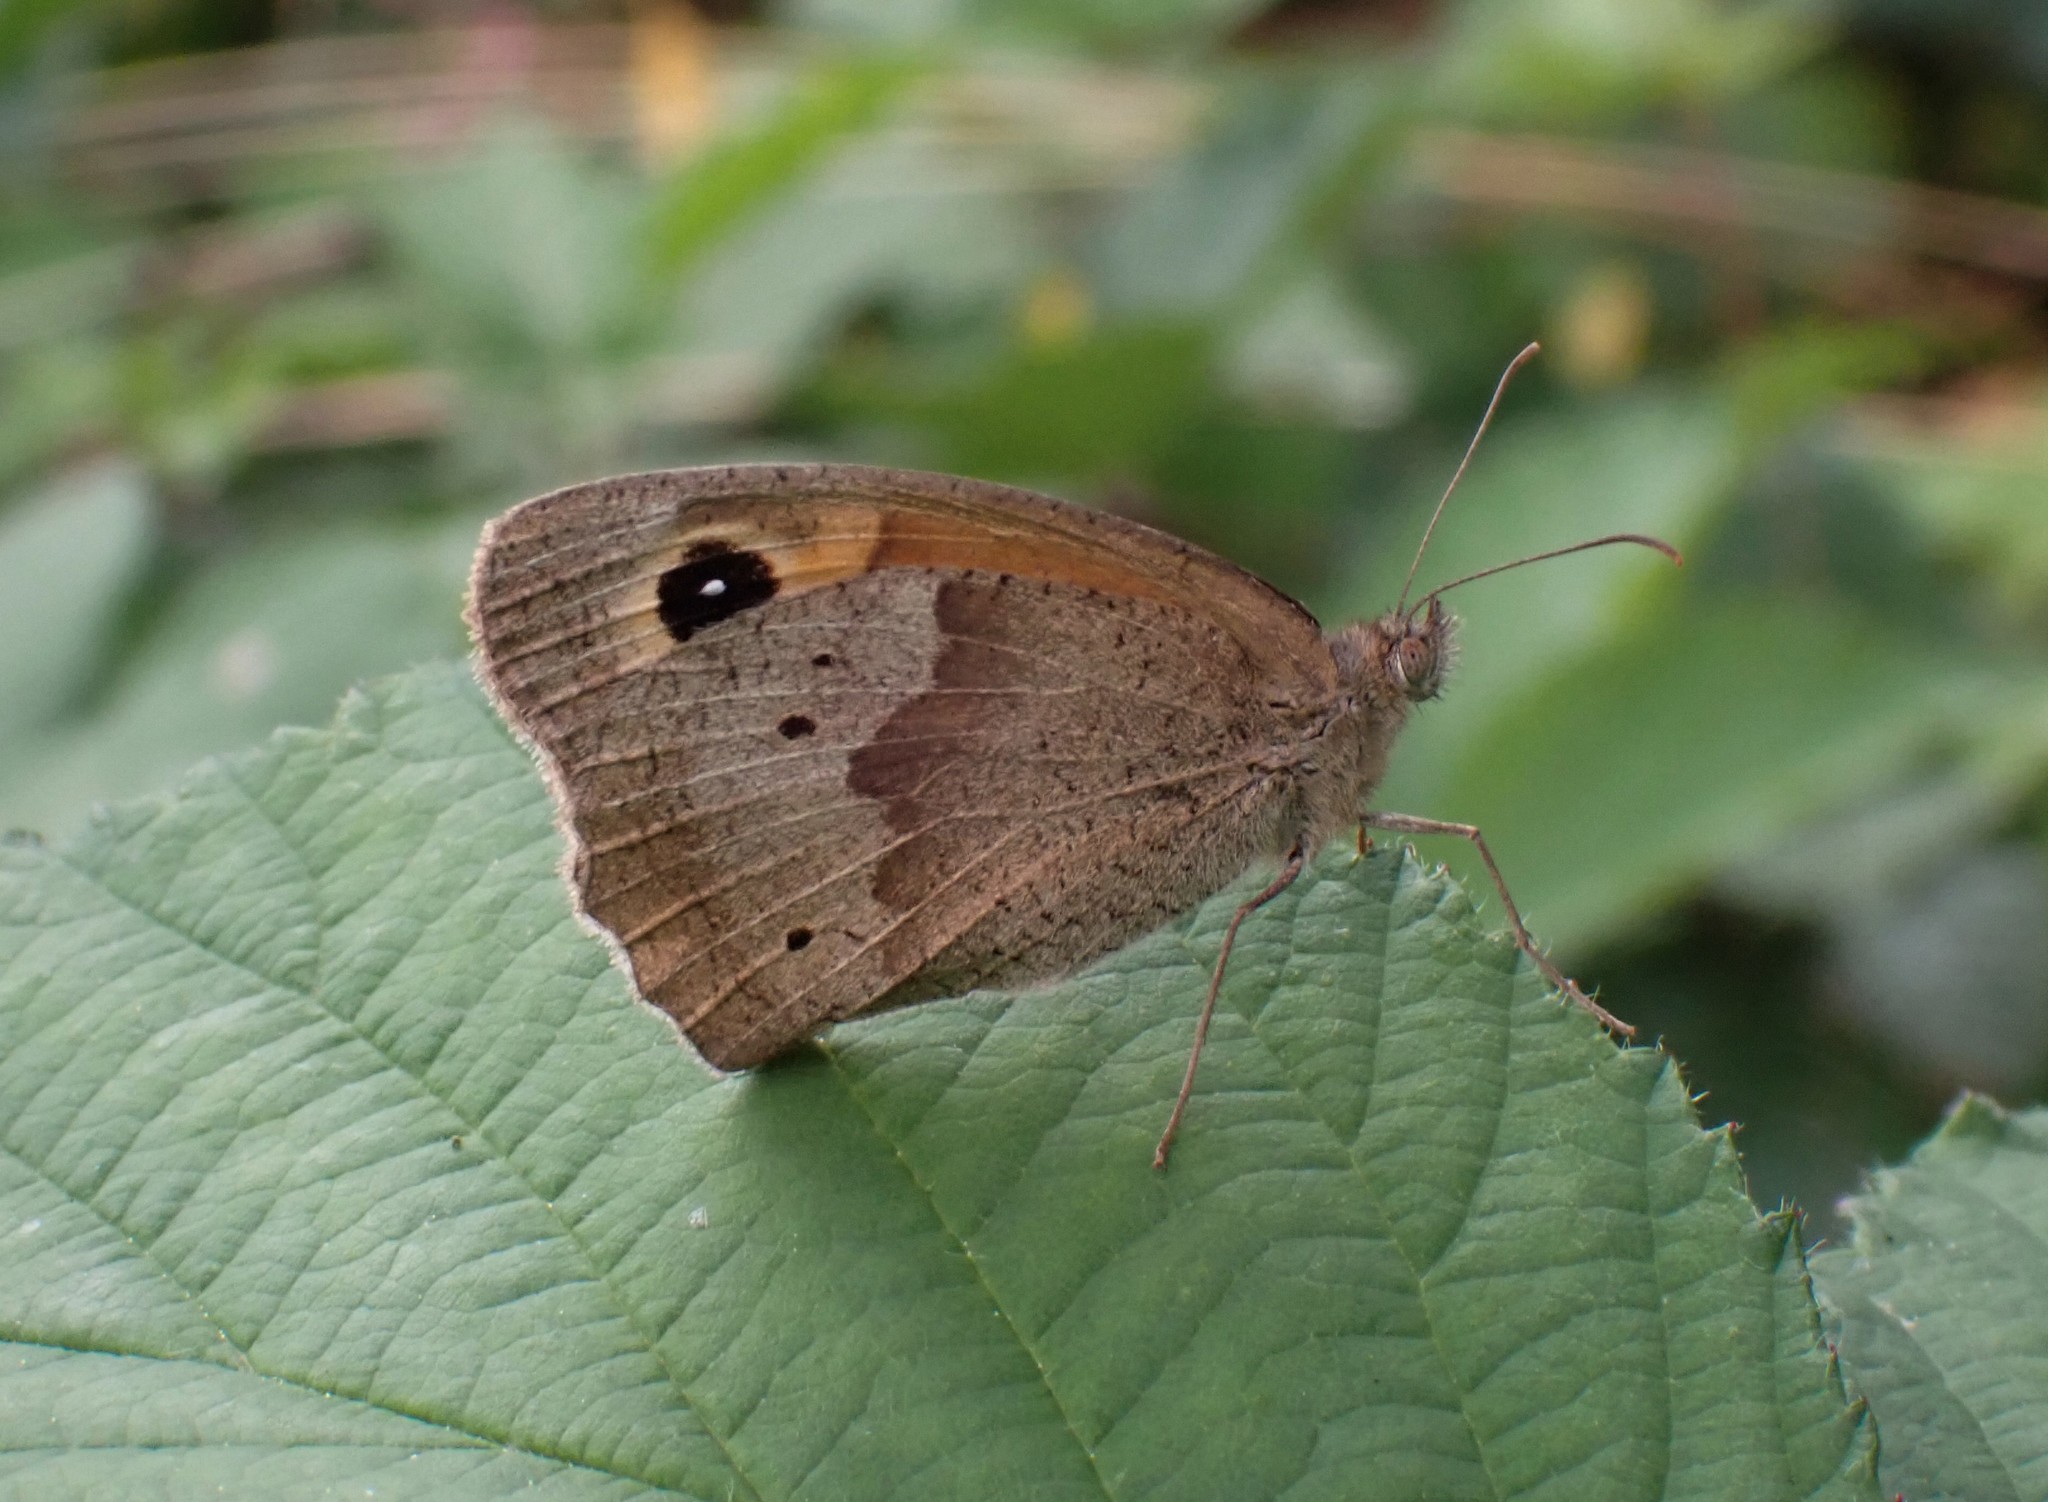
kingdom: Animalia
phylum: Arthropoda
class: Insecta
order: Lepidoptera
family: Nymphalidae
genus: Maniola
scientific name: Maniola jurtina
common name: Meadow brown
